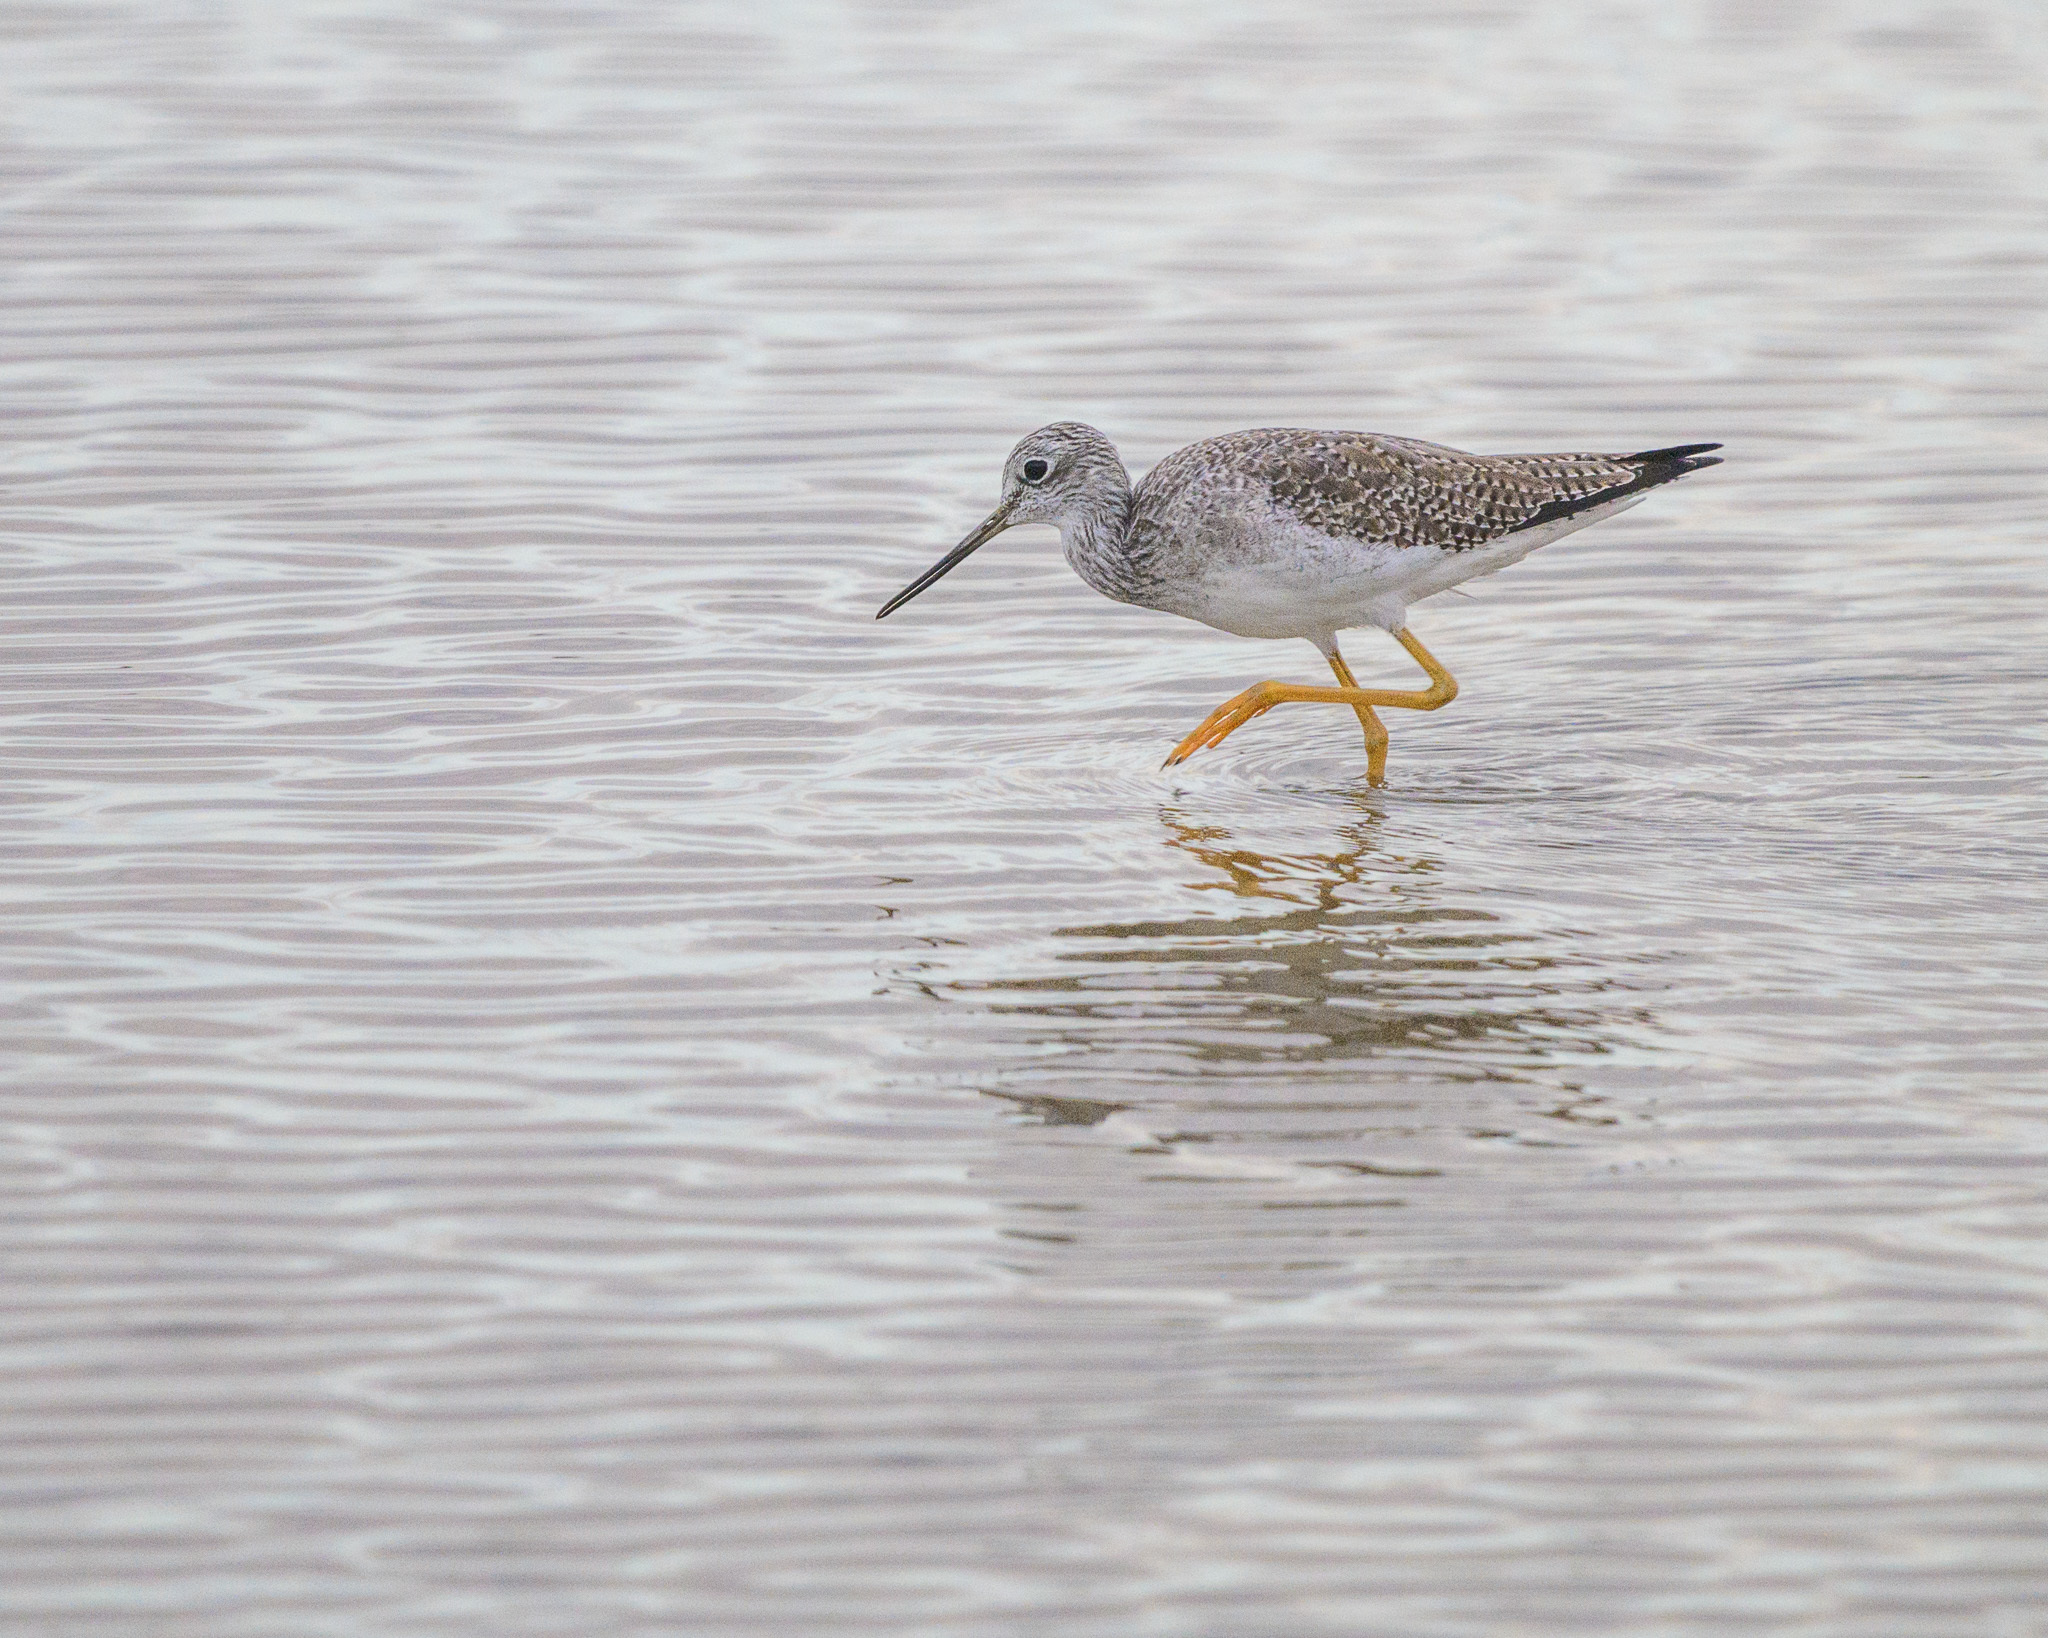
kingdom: Animalia
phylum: Chordata
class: Aves
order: Charadriiformes
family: Scolopacidae
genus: Tringa
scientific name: Tringa melanoleuca
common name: Greater yellowlegs
